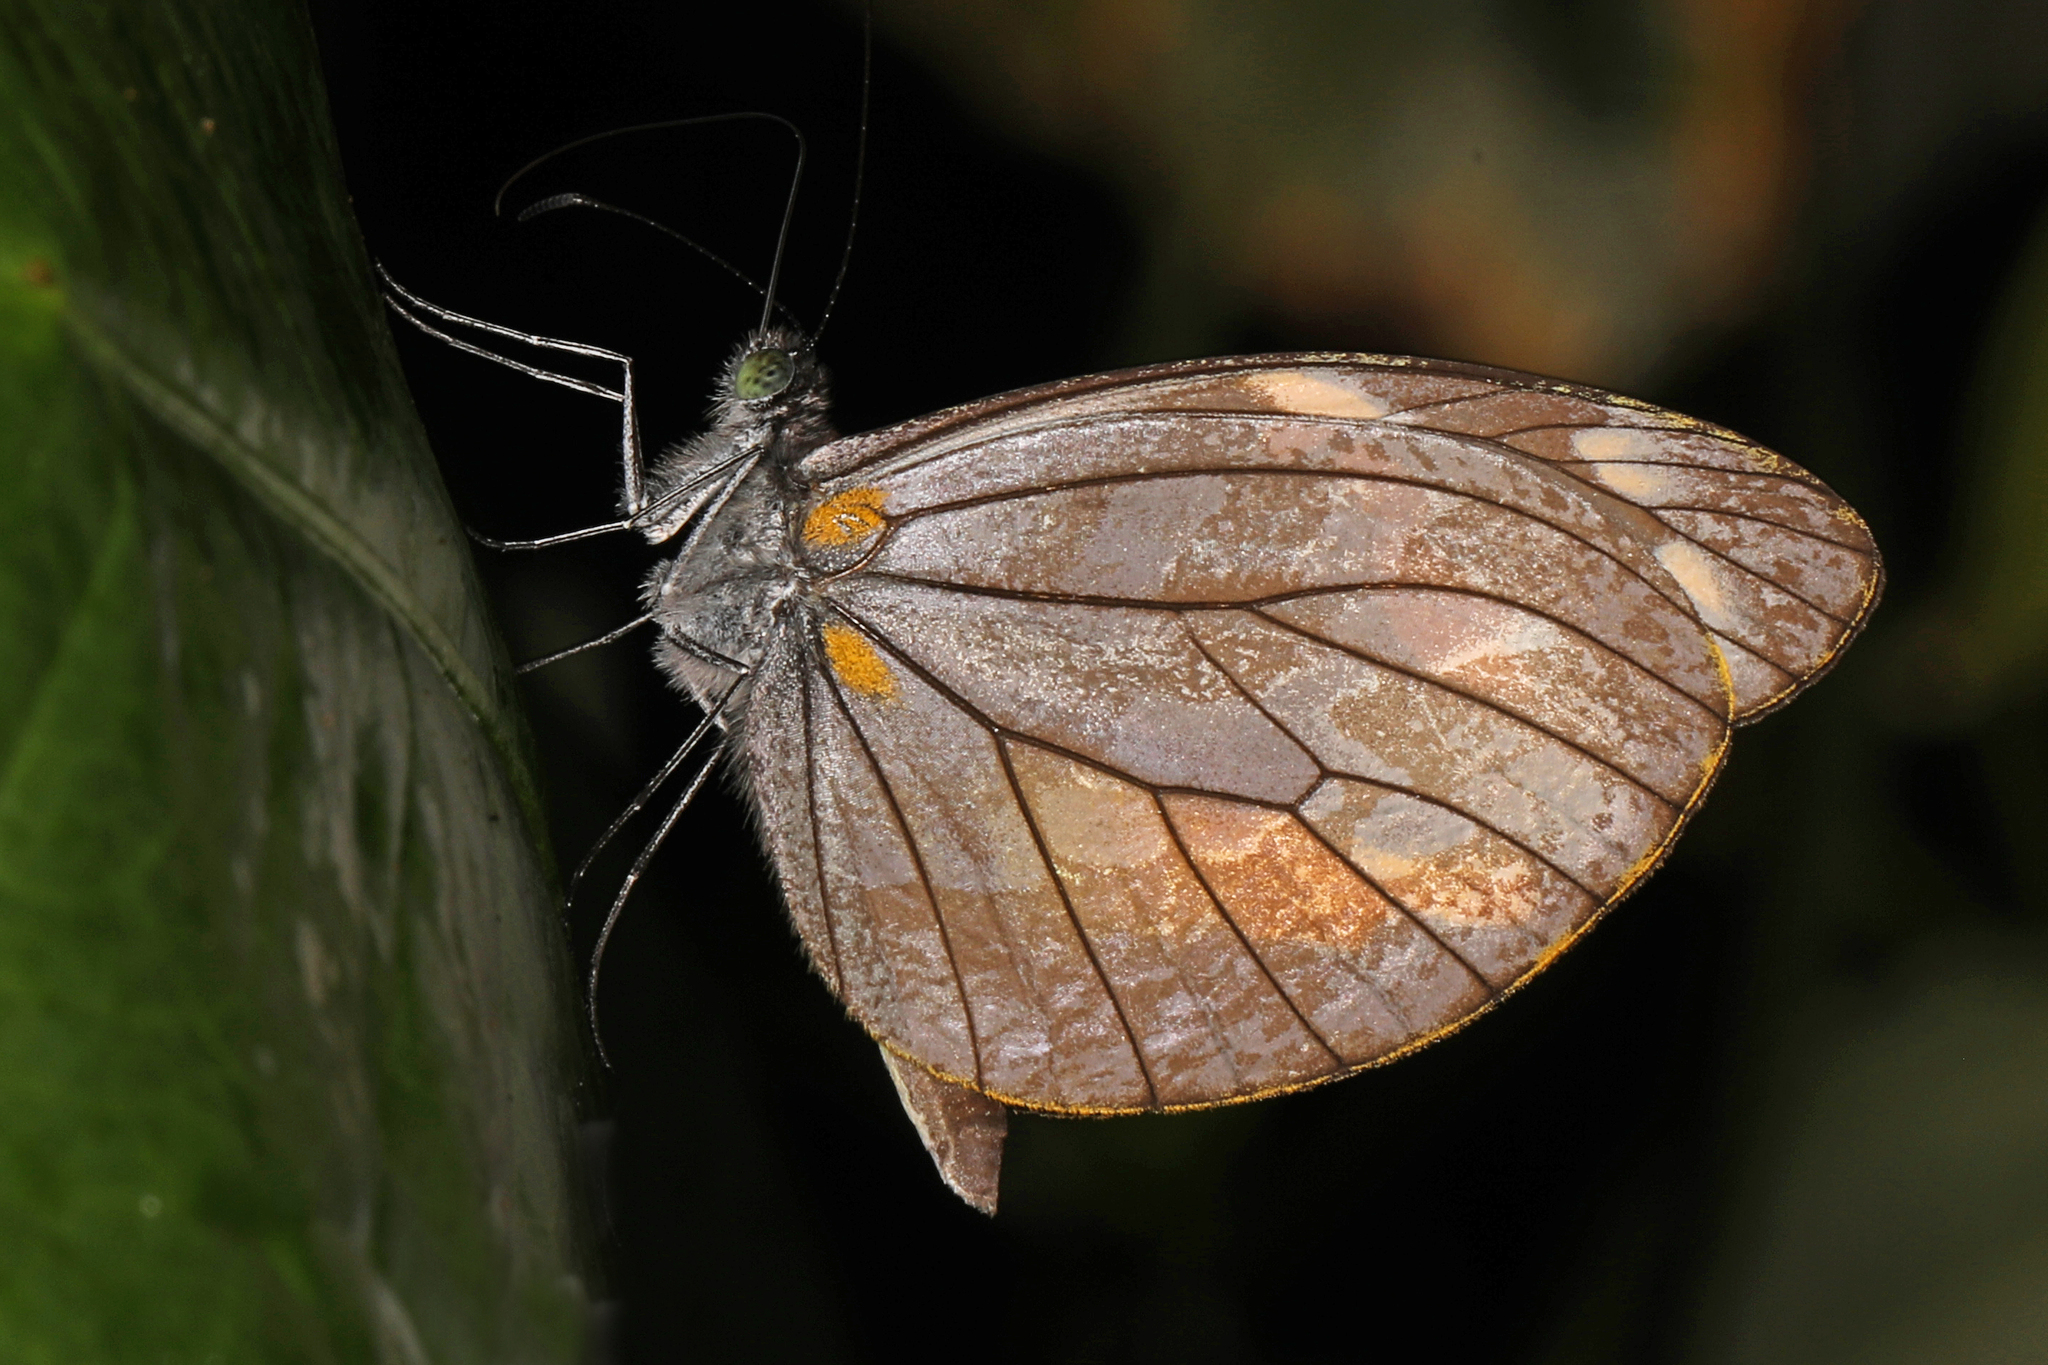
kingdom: Animalia
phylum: Arthropoda
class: Insecta
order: Lepidoptera
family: Pieridae
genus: Dismorphia
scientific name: Dismorphia zaela
